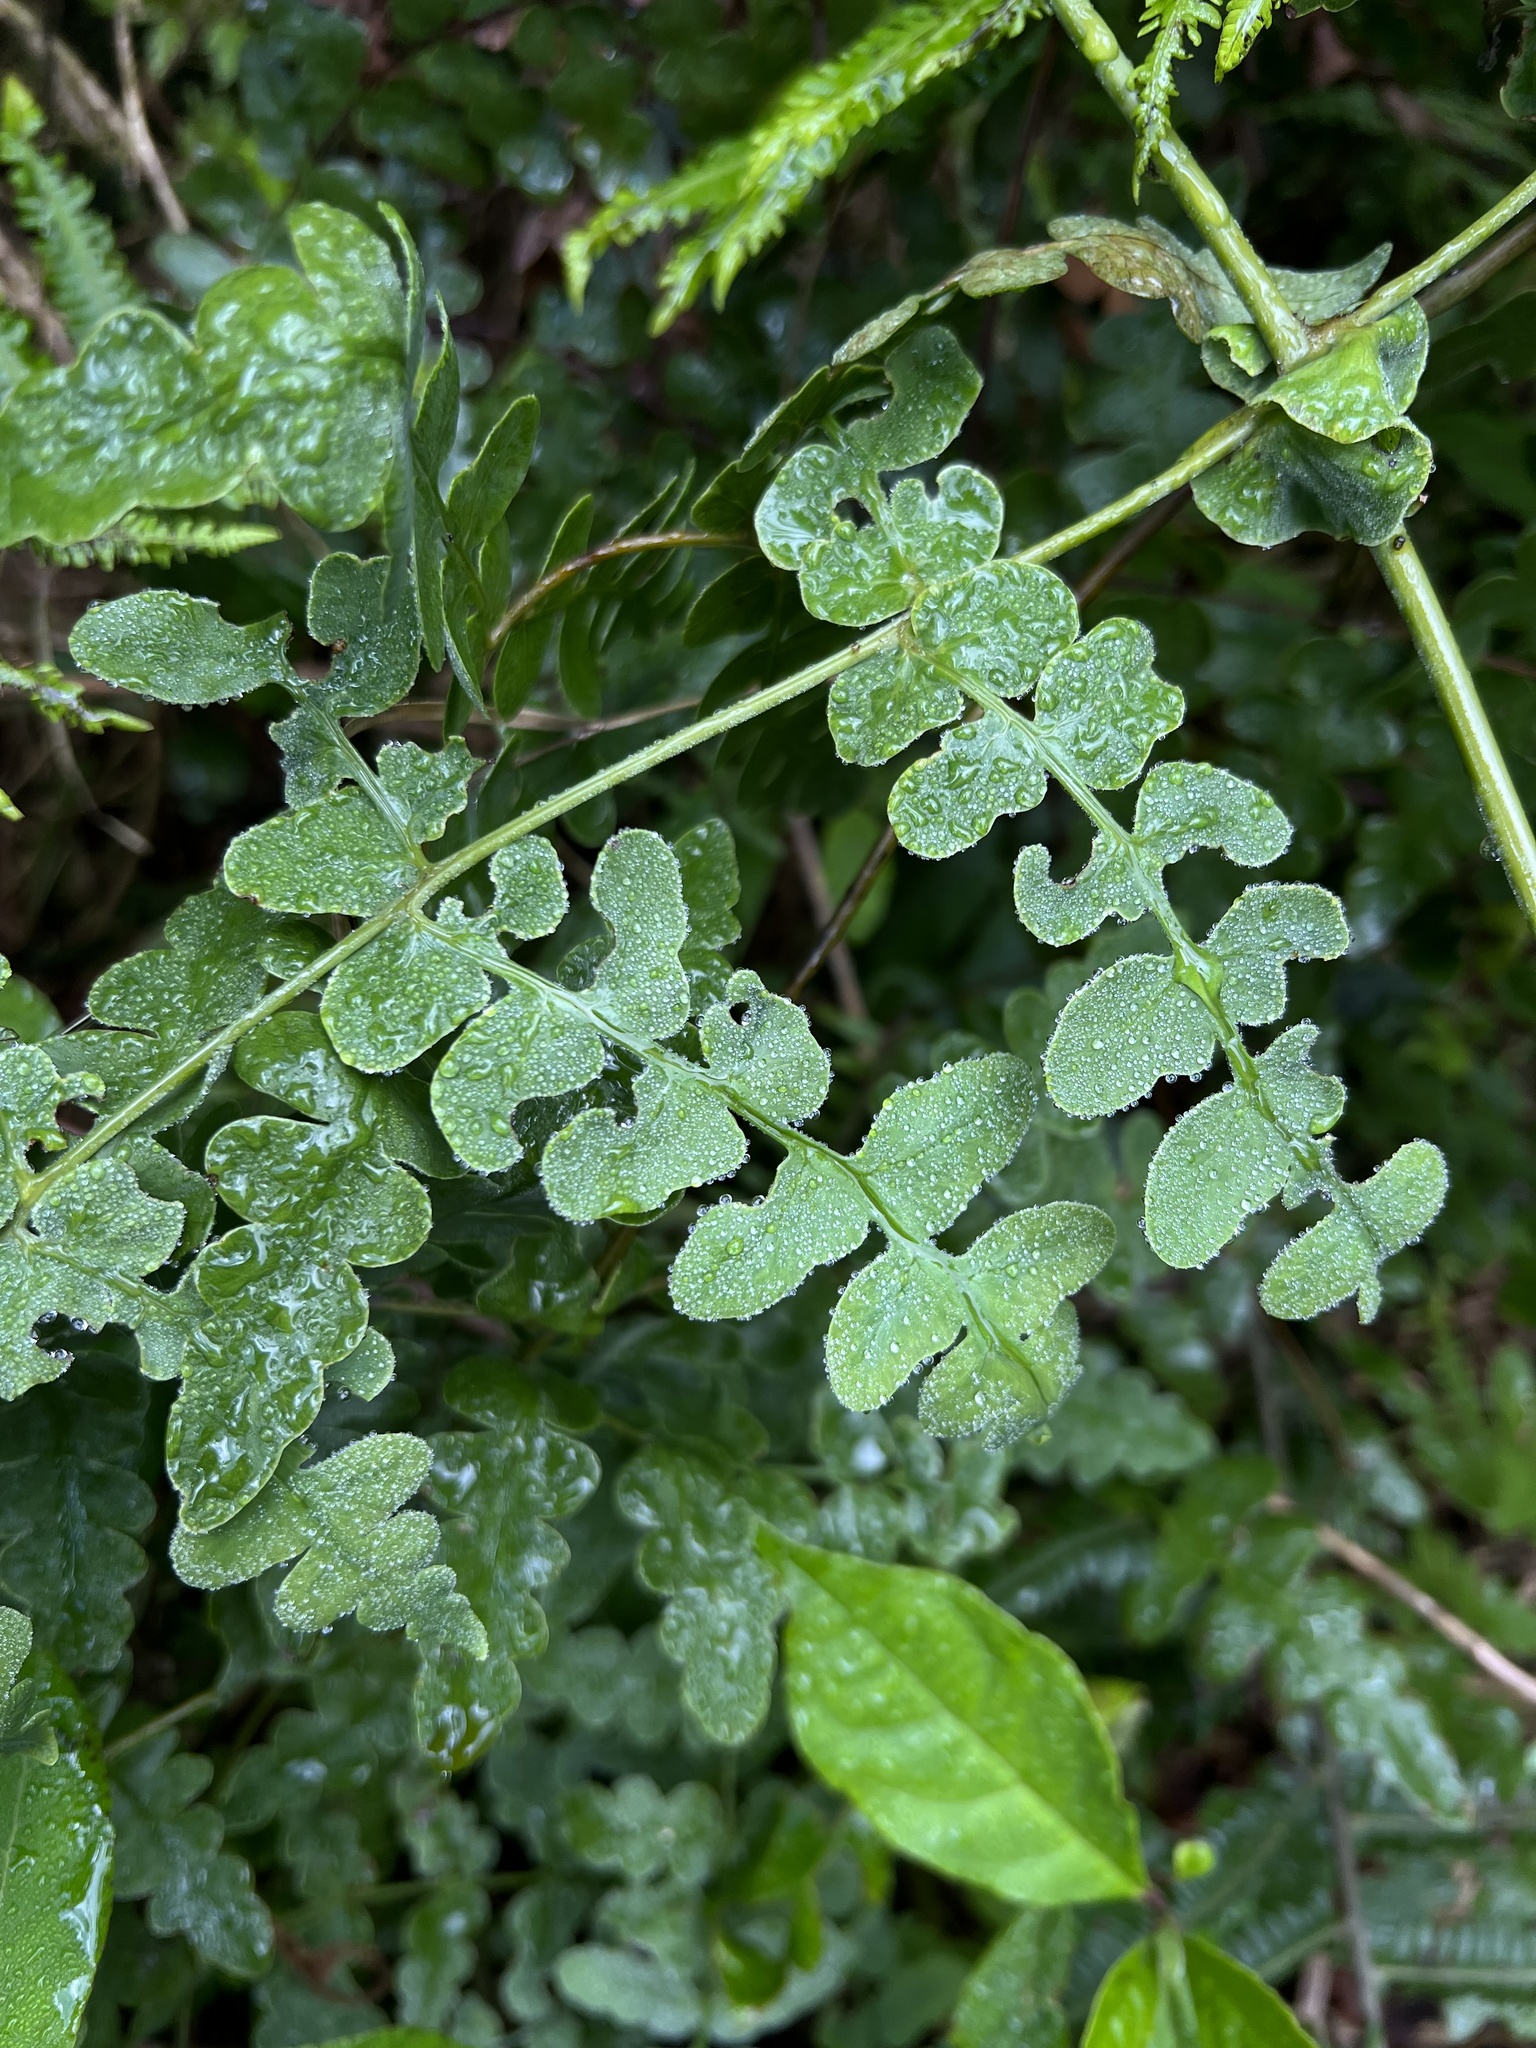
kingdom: Plantae
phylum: Tracheophyta
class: Polypodiopsida
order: Polypodiales
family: Dennstaedtiaceae
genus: Histiopteris
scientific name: Histiopteris incisa
